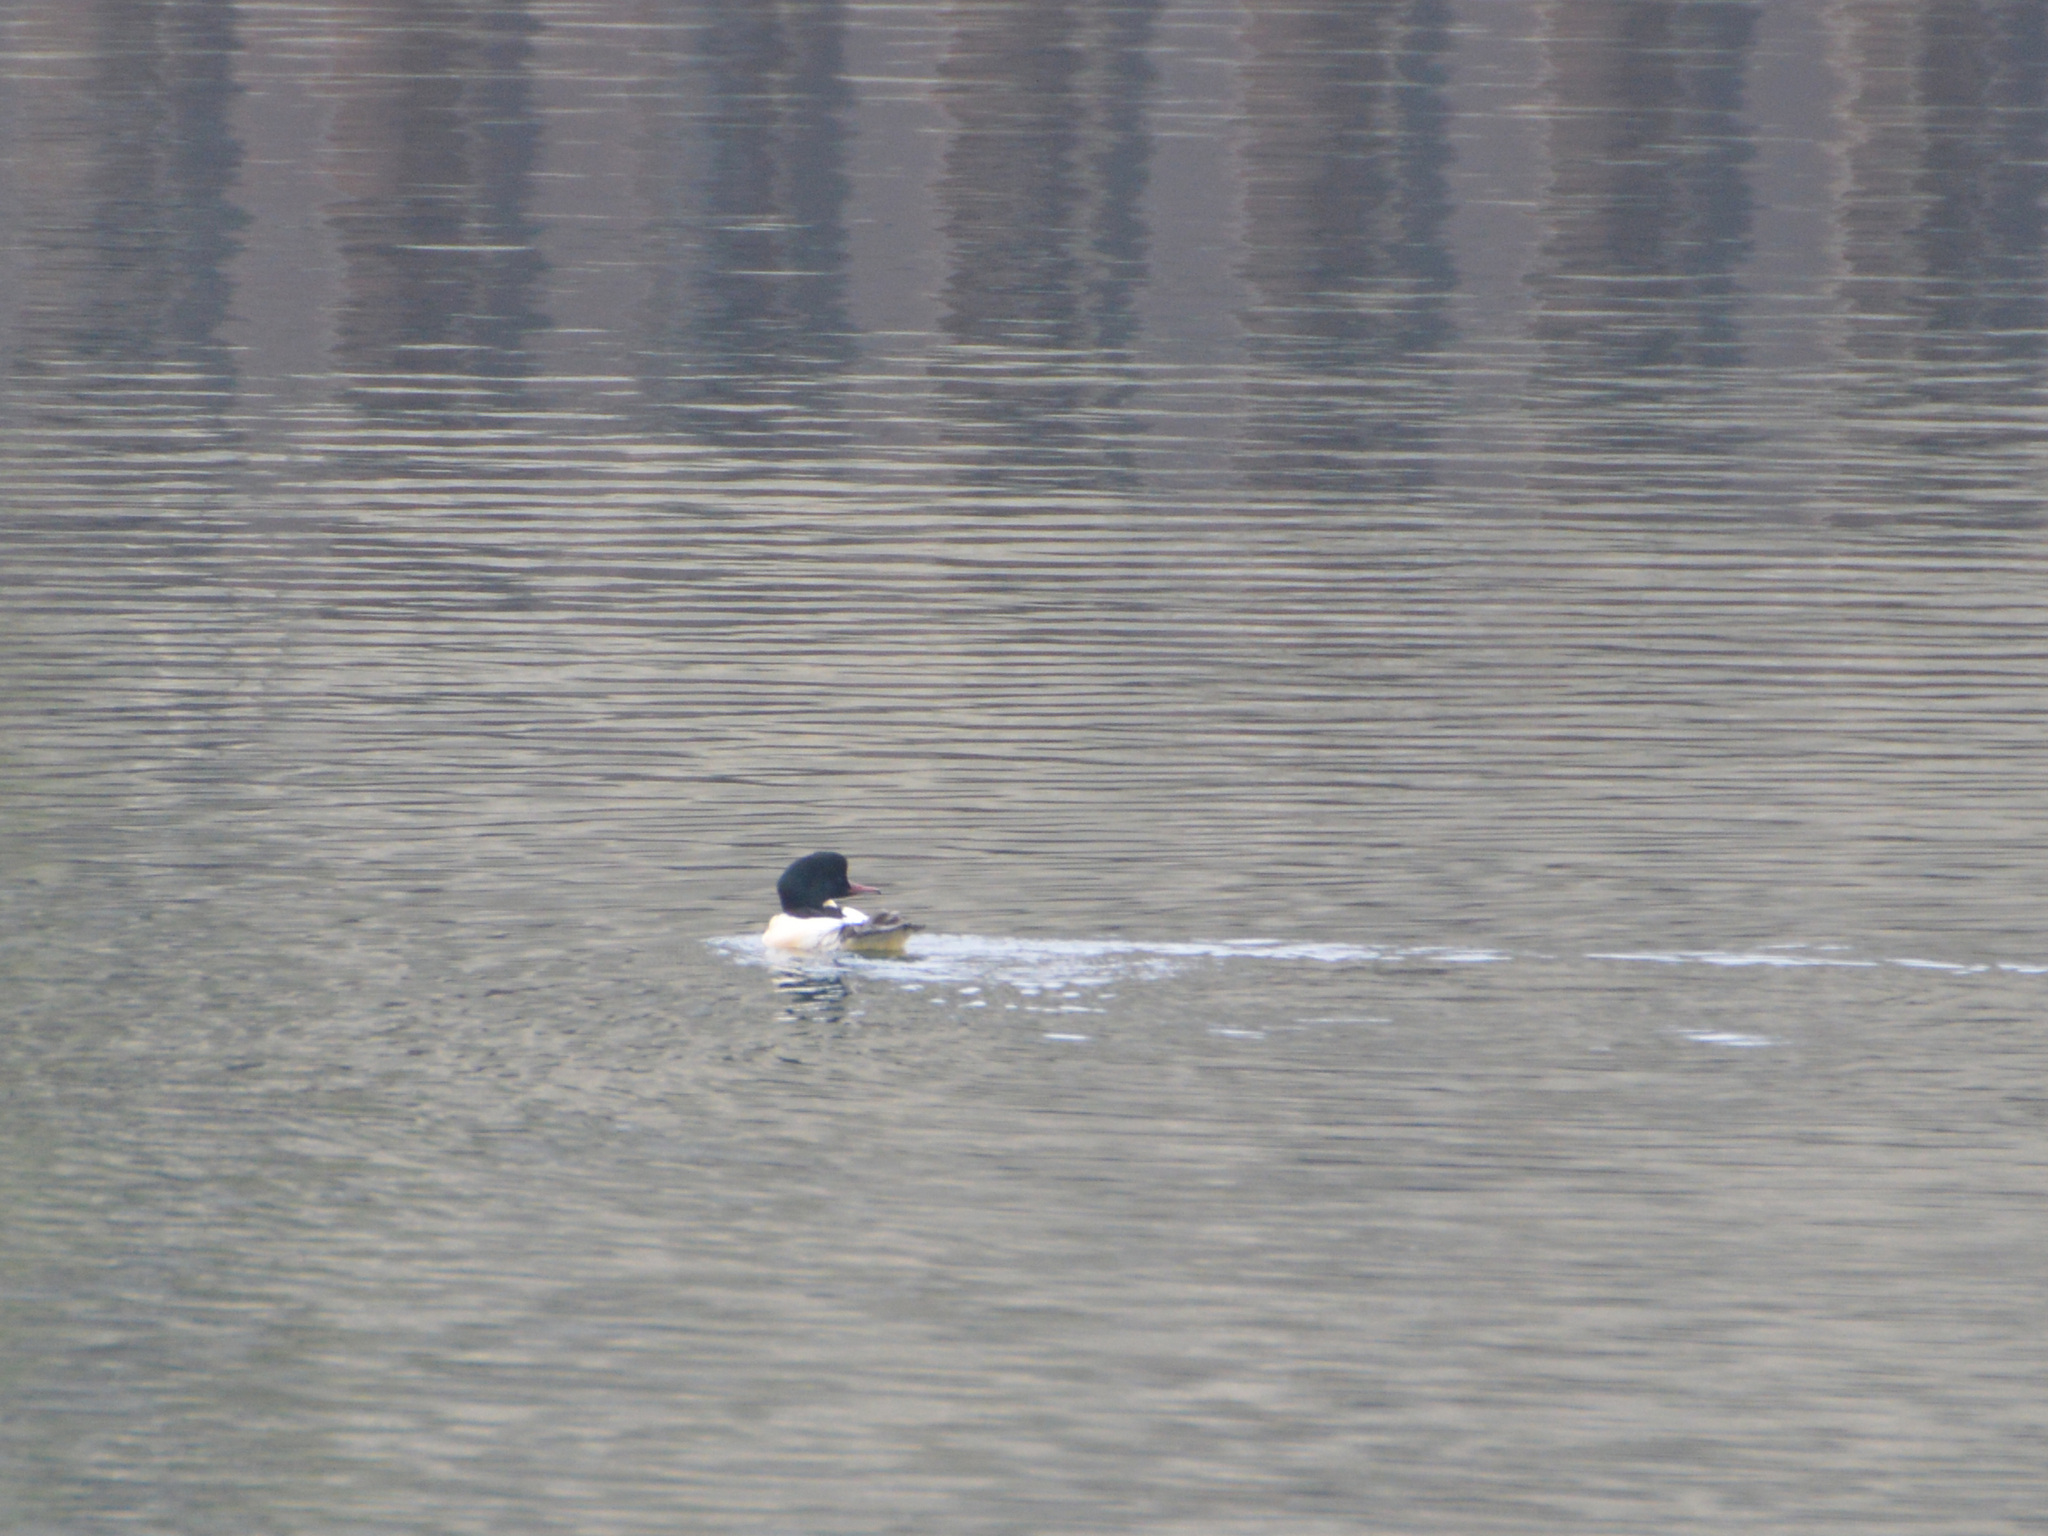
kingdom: Animalia
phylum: Chordata
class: Aves
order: Anseriformes
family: Anatidae
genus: Mergus
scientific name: Mergus merganser
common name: Common merganser
